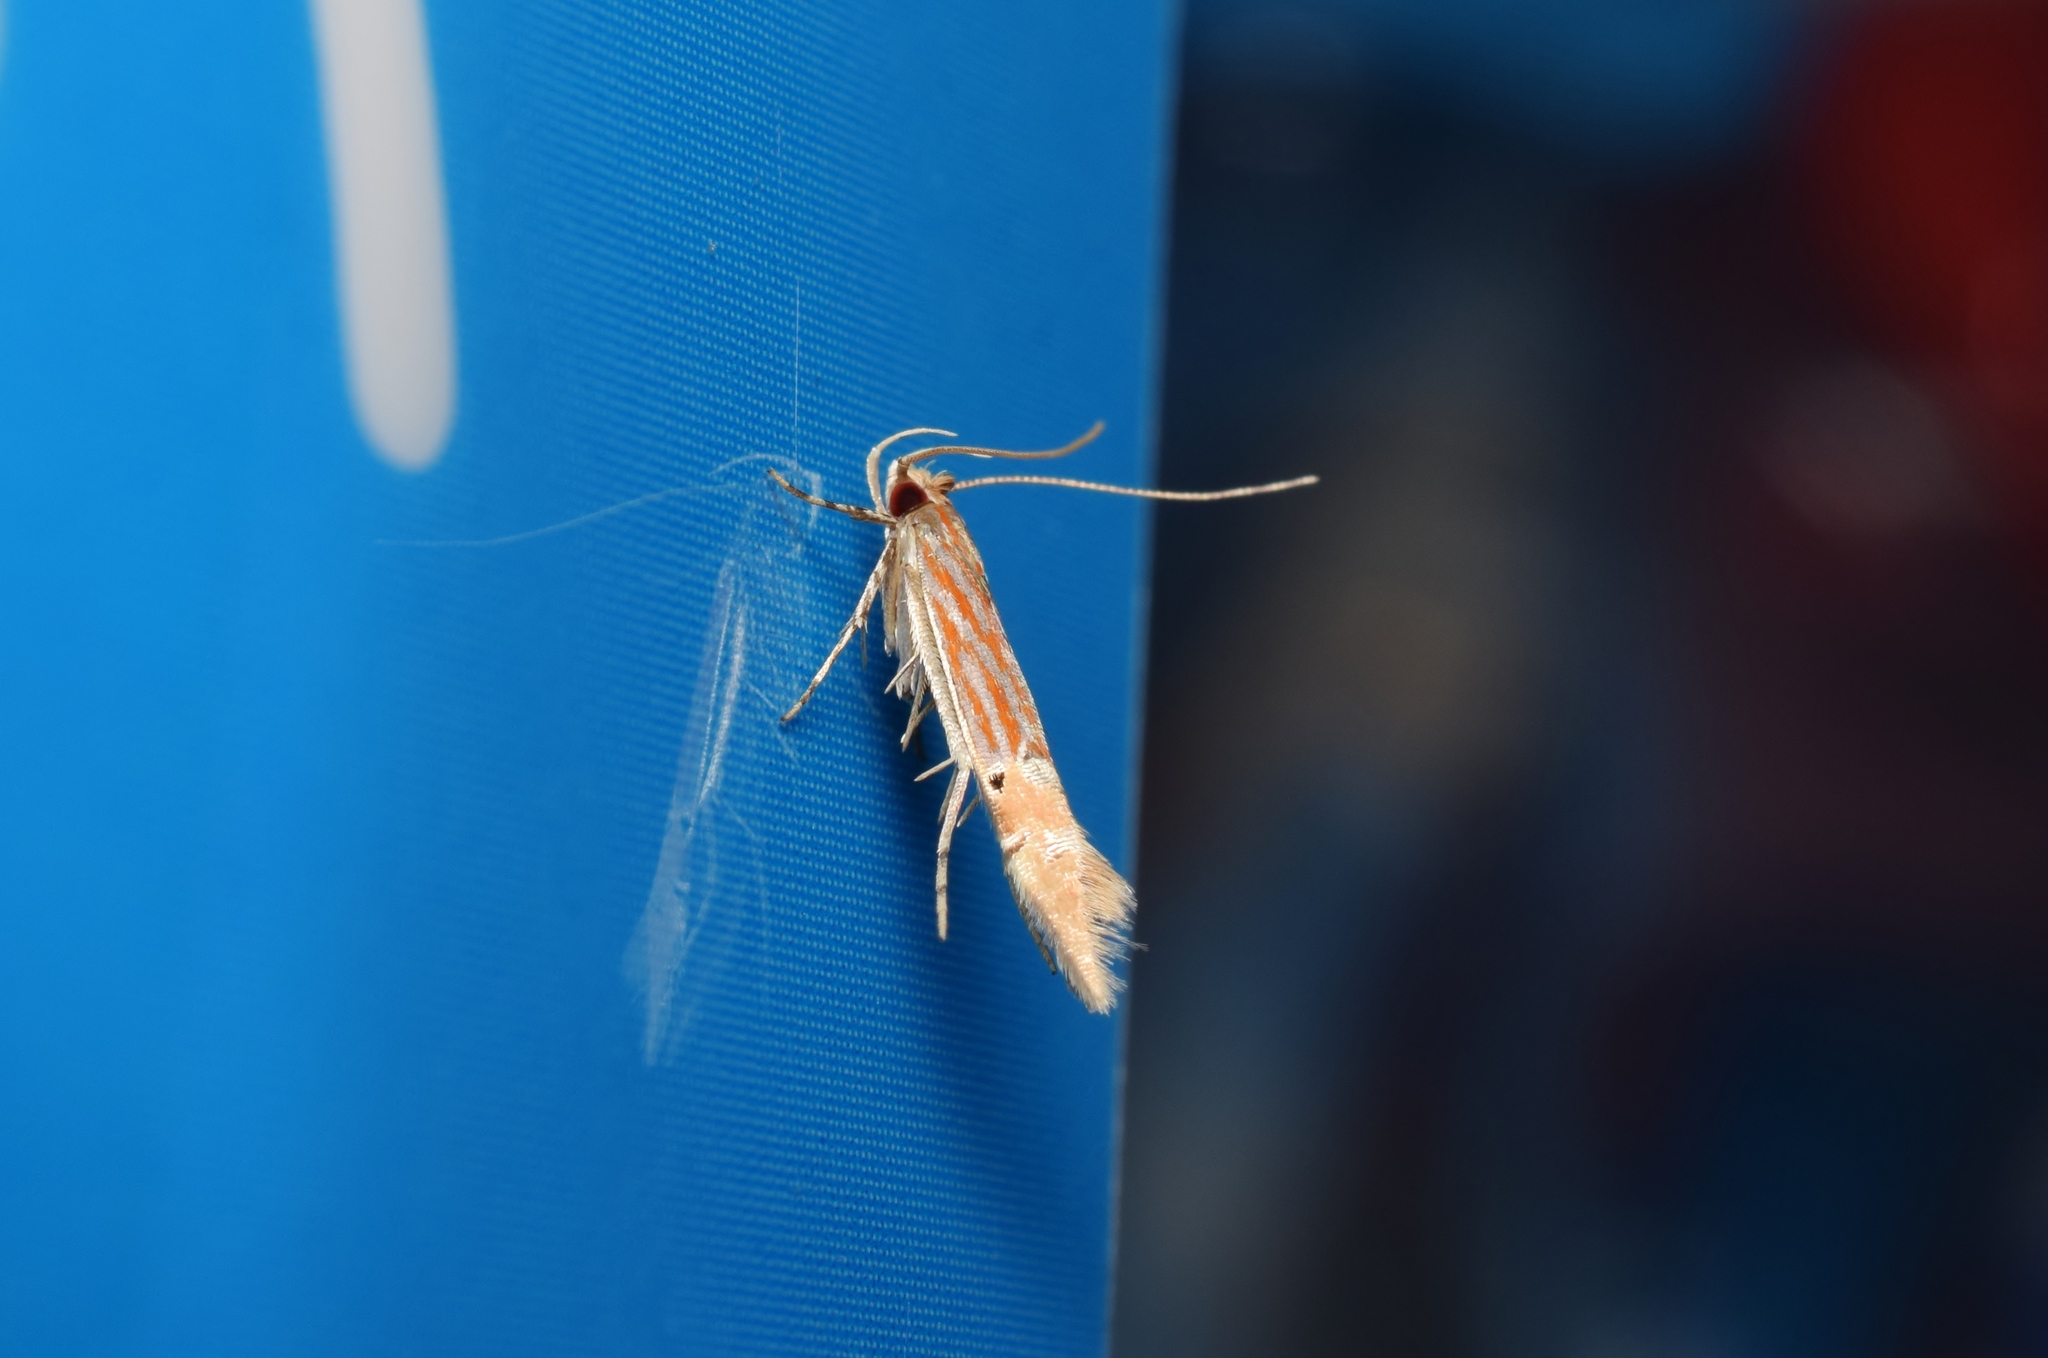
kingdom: Animalia
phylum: Arthropoda
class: Insecta
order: Lepidoptera
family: Cosmopterigidae
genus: Labdia
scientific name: Labdia semicoccinea
